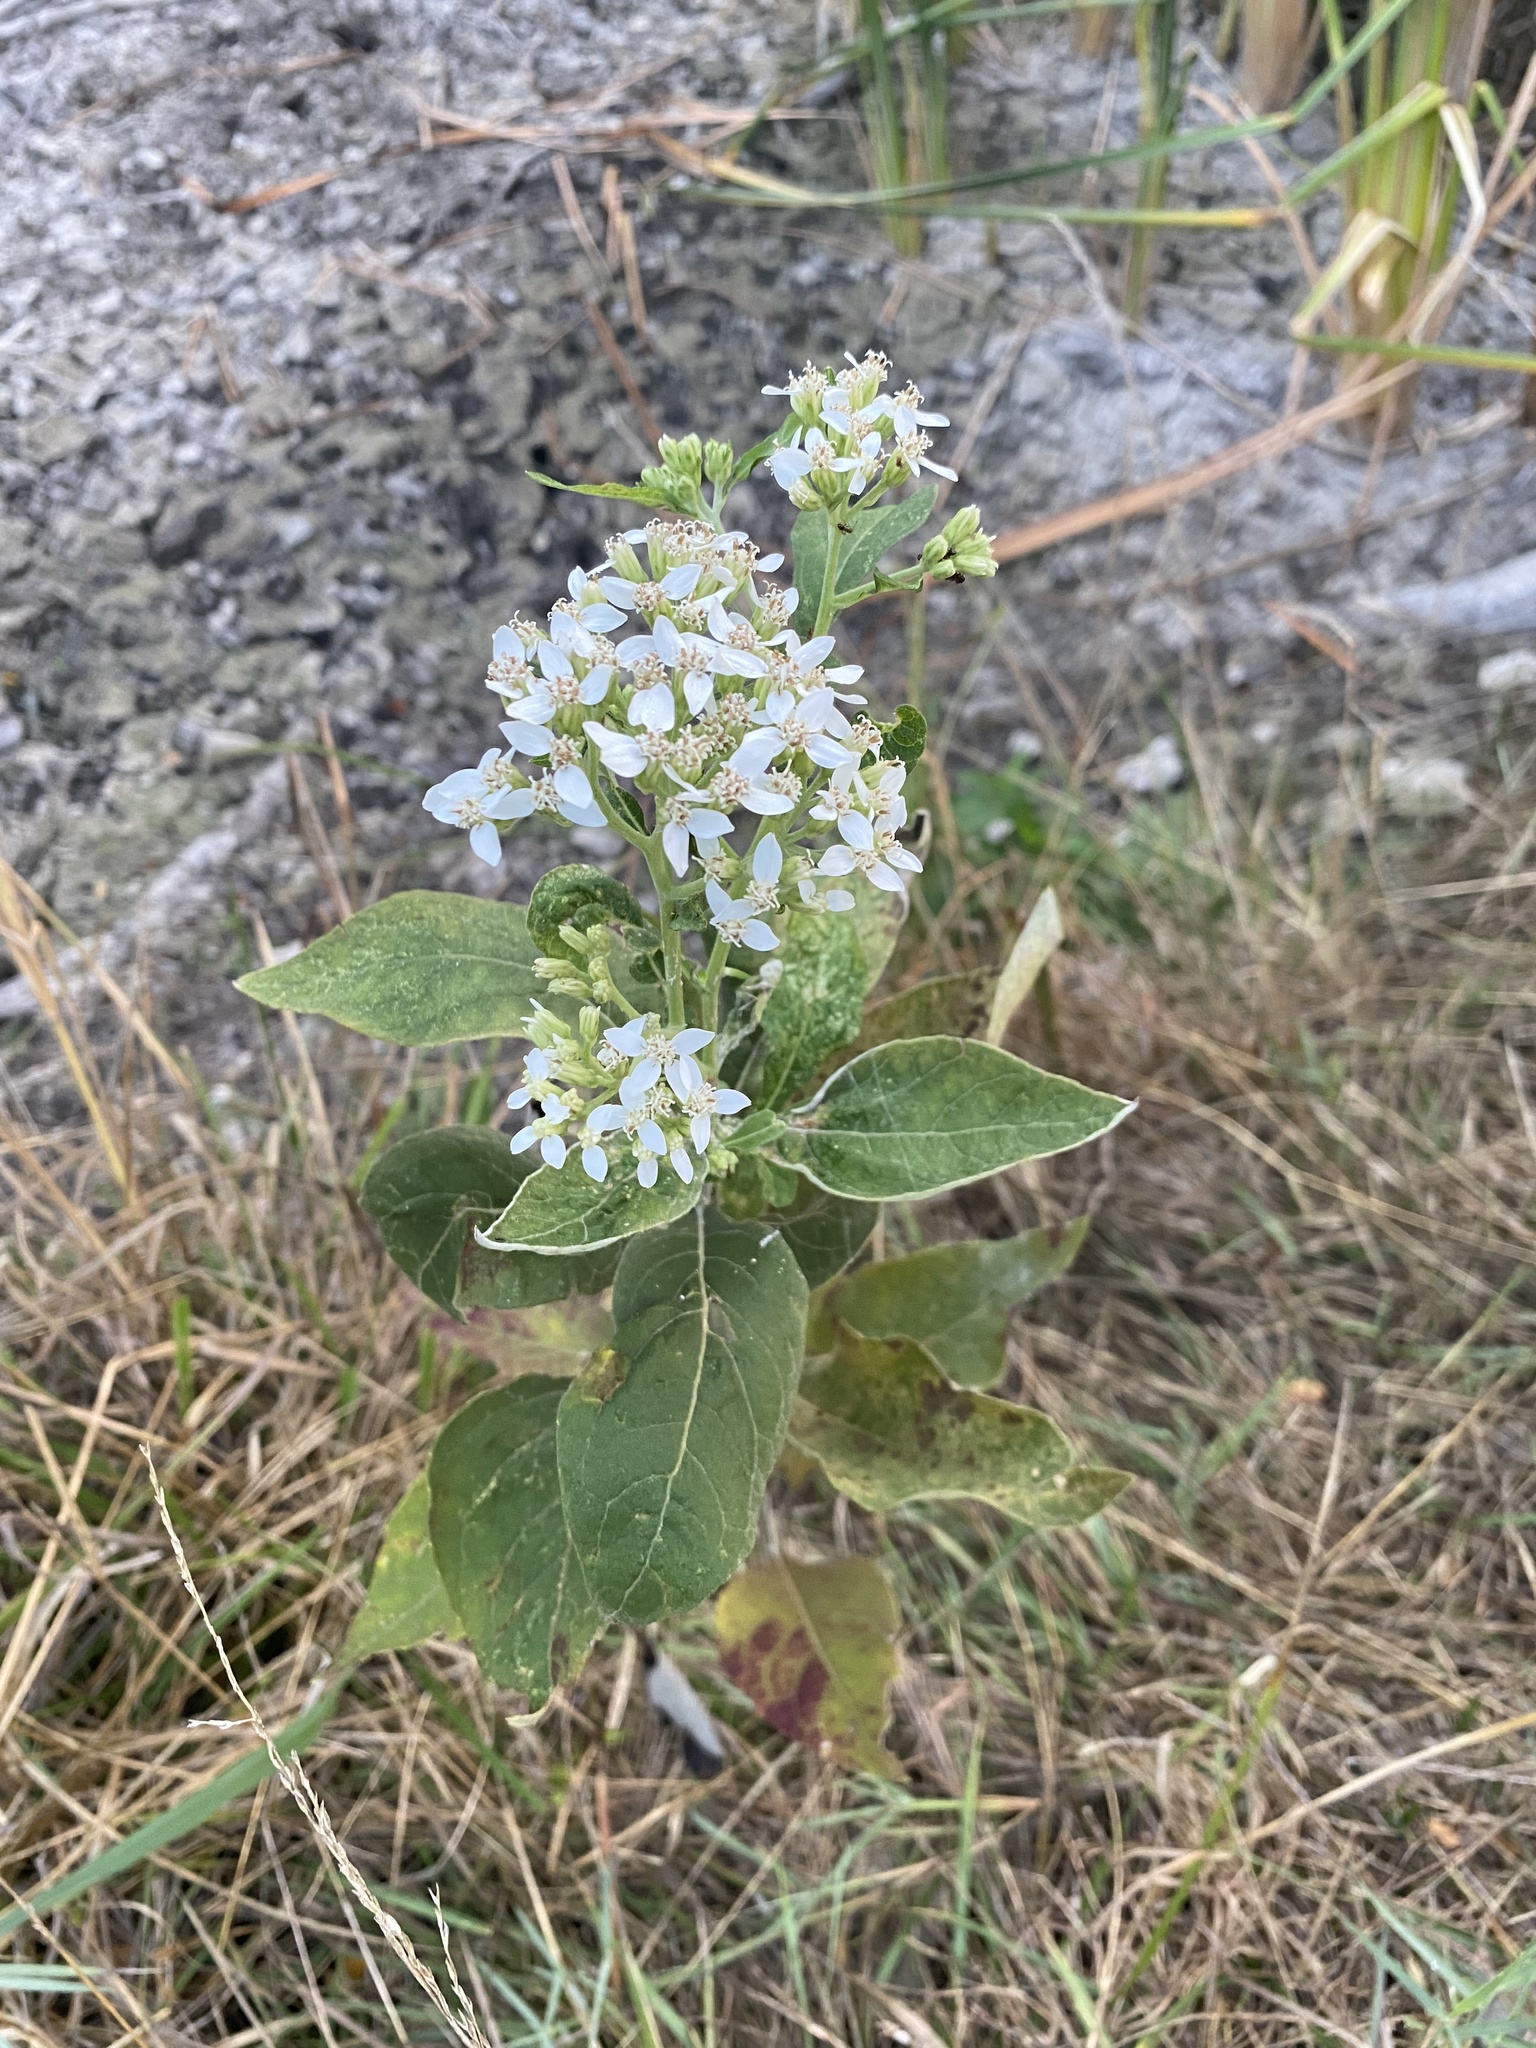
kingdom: Plantae
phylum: Tracheophyta
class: Magnoliopsida
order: Asterales
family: Asteraceae
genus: Verbesina
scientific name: Verbesina virginica
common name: Frostweed
